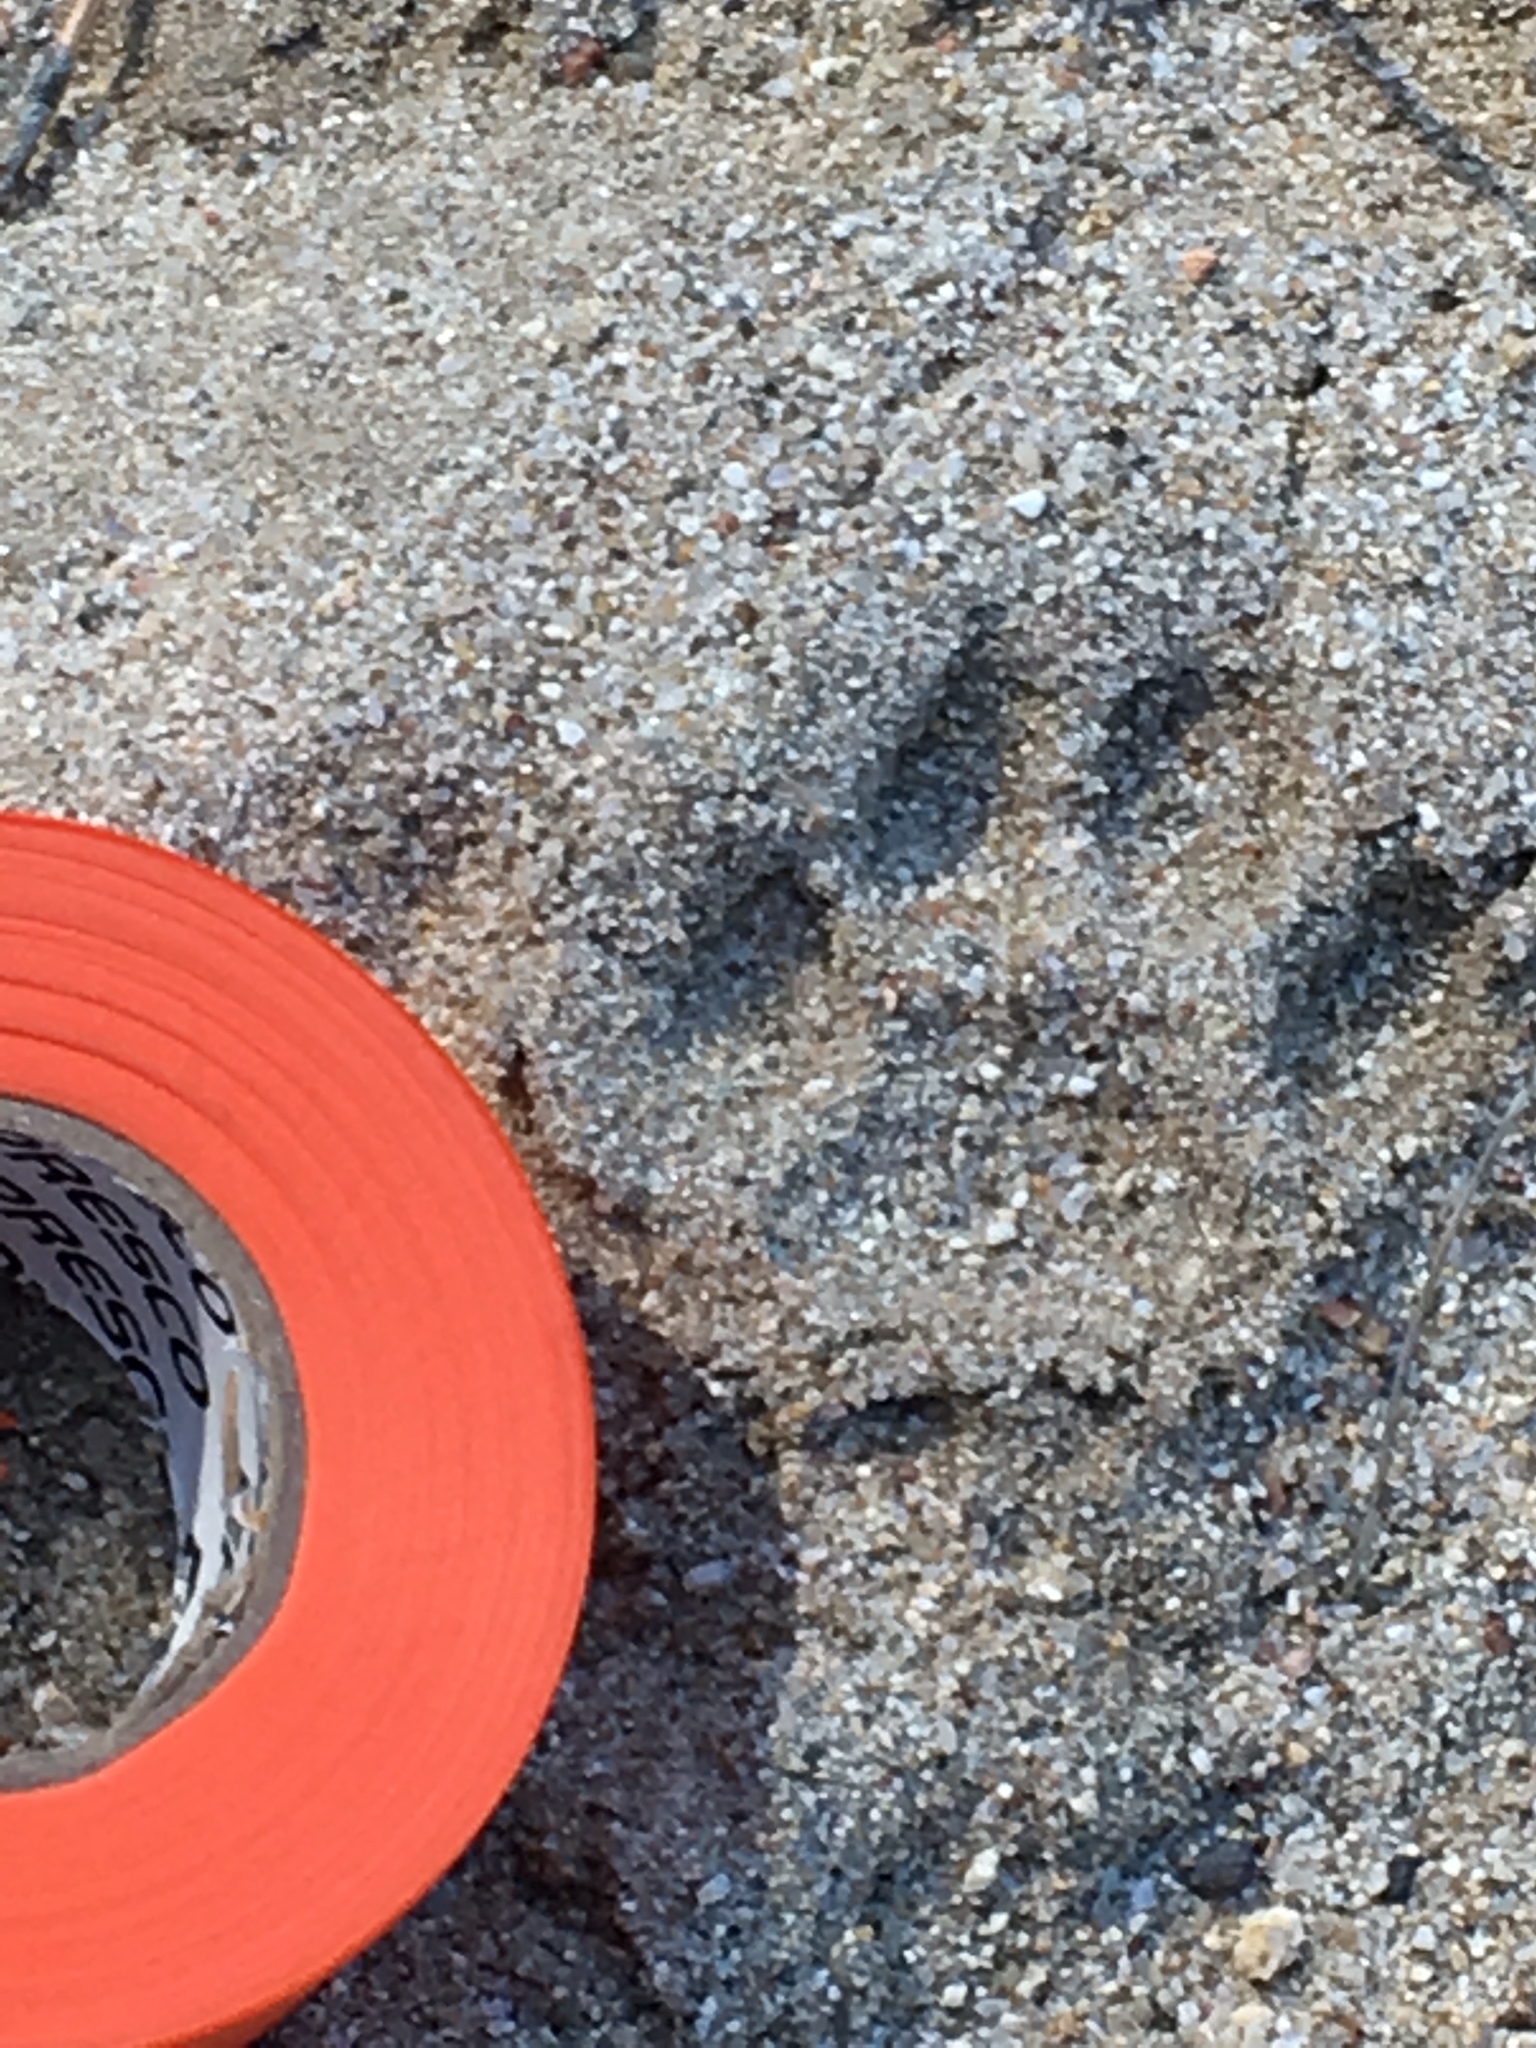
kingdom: Animalia
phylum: Chordata
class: Mammalia
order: Carnivora
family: Felidae
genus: Lynx
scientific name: Lynx rufus
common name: Bobcat
